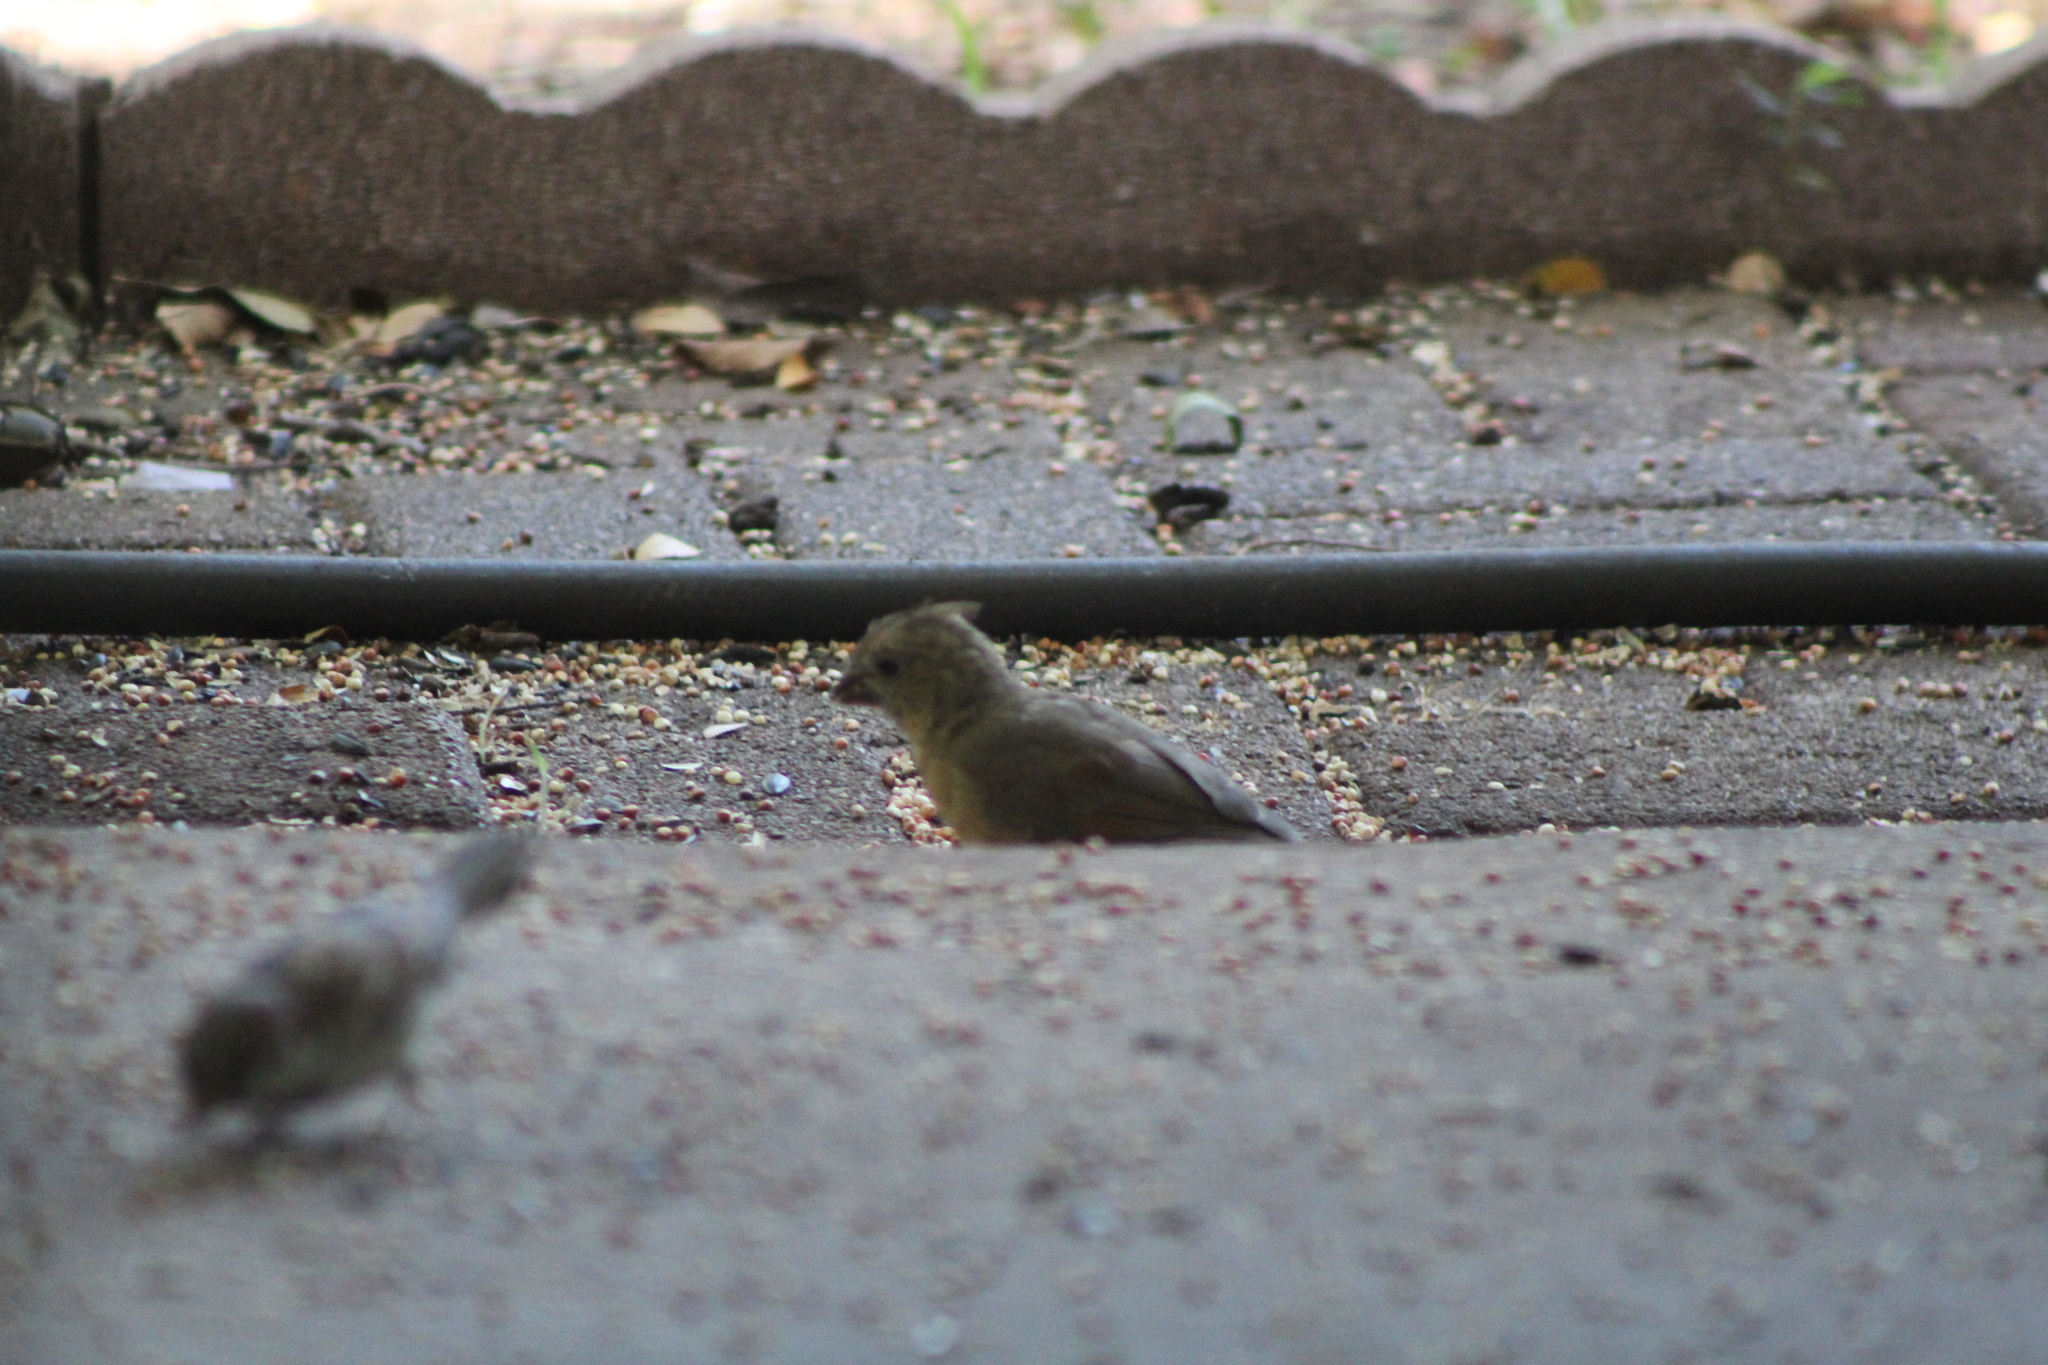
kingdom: Animalia
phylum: Chordata
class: Aves
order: Passeriformes
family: Cardinalidae
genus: Cardinalis
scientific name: Cardinalis cardinalis
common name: Northern cardinal
